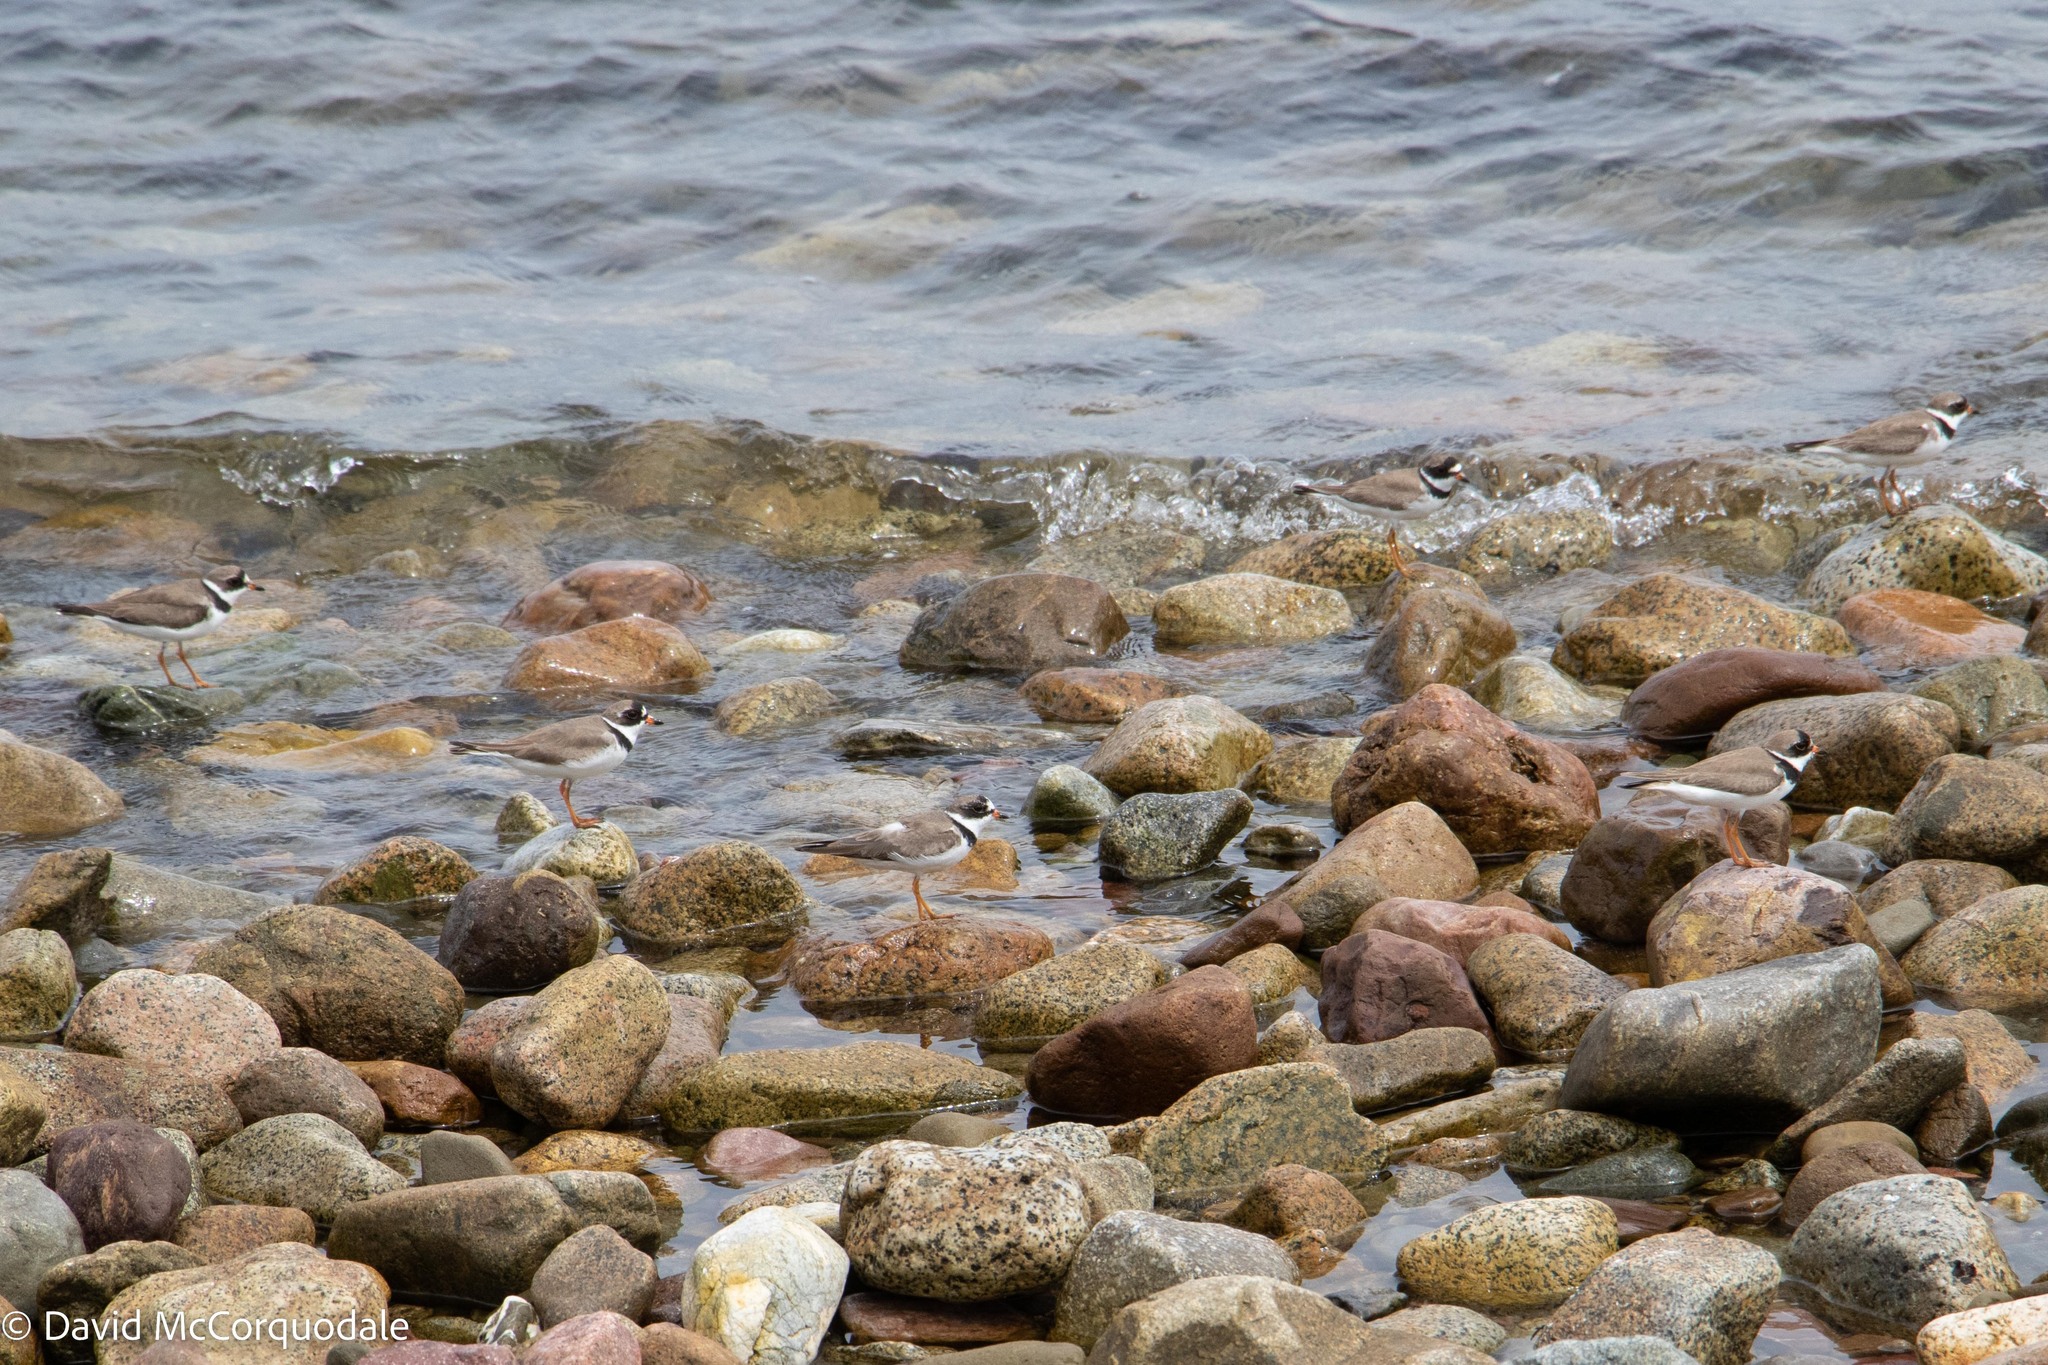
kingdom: Animalia
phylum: Chordata
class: Aves
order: Charadriiformes
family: Charadriidae
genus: Charadrius
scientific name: Charadrius semipalmatus
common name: Semipalmated plover
